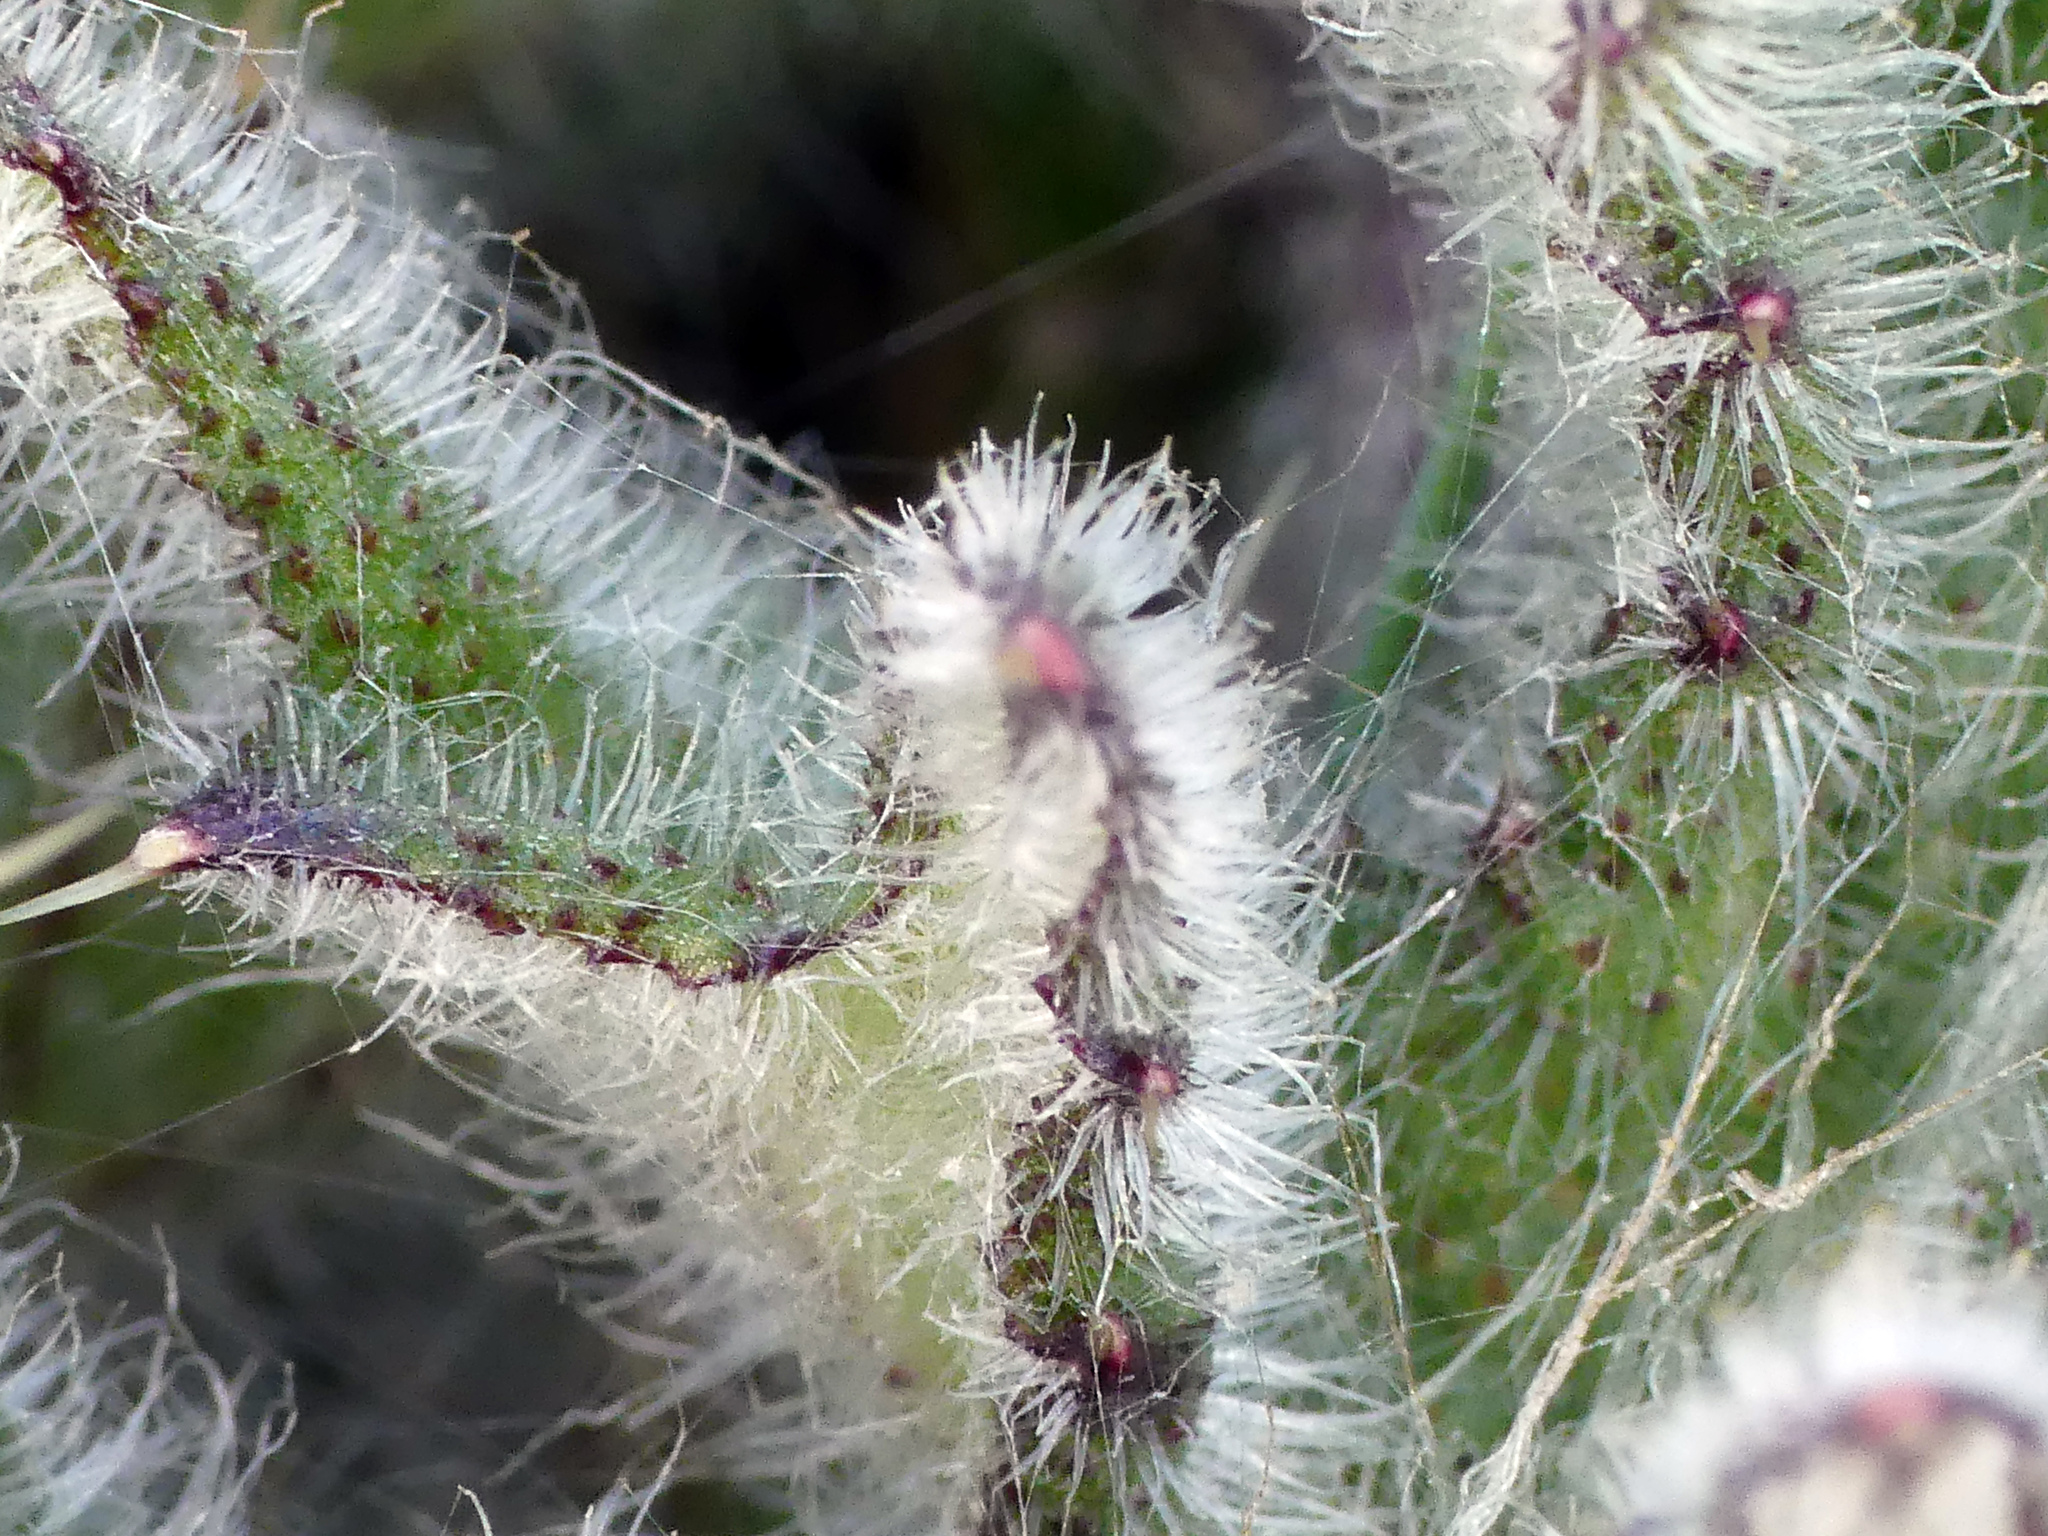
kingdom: Plantae
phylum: Tracheophyta
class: Magnoliopsida
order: Asterales
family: Asteraceae
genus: Cirsium
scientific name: Cirsium vulgare
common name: Bull thistle
